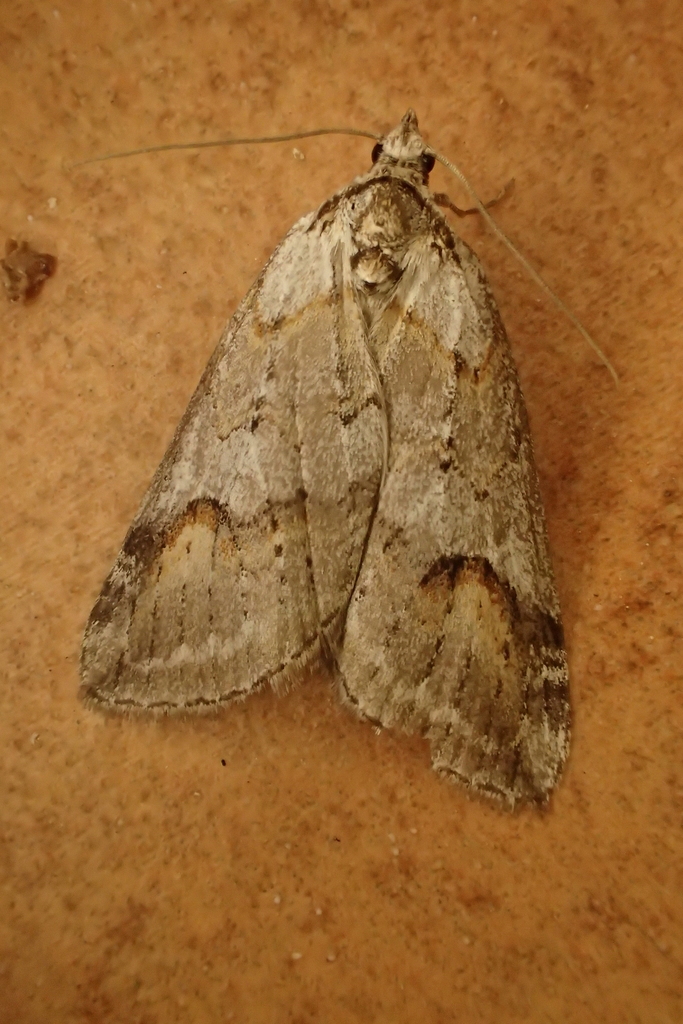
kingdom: Animalia
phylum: Arthropoda
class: Insecta
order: Lepidoptera
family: Geometridae
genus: Chesias
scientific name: Chesias rufata
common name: Broom-tip
